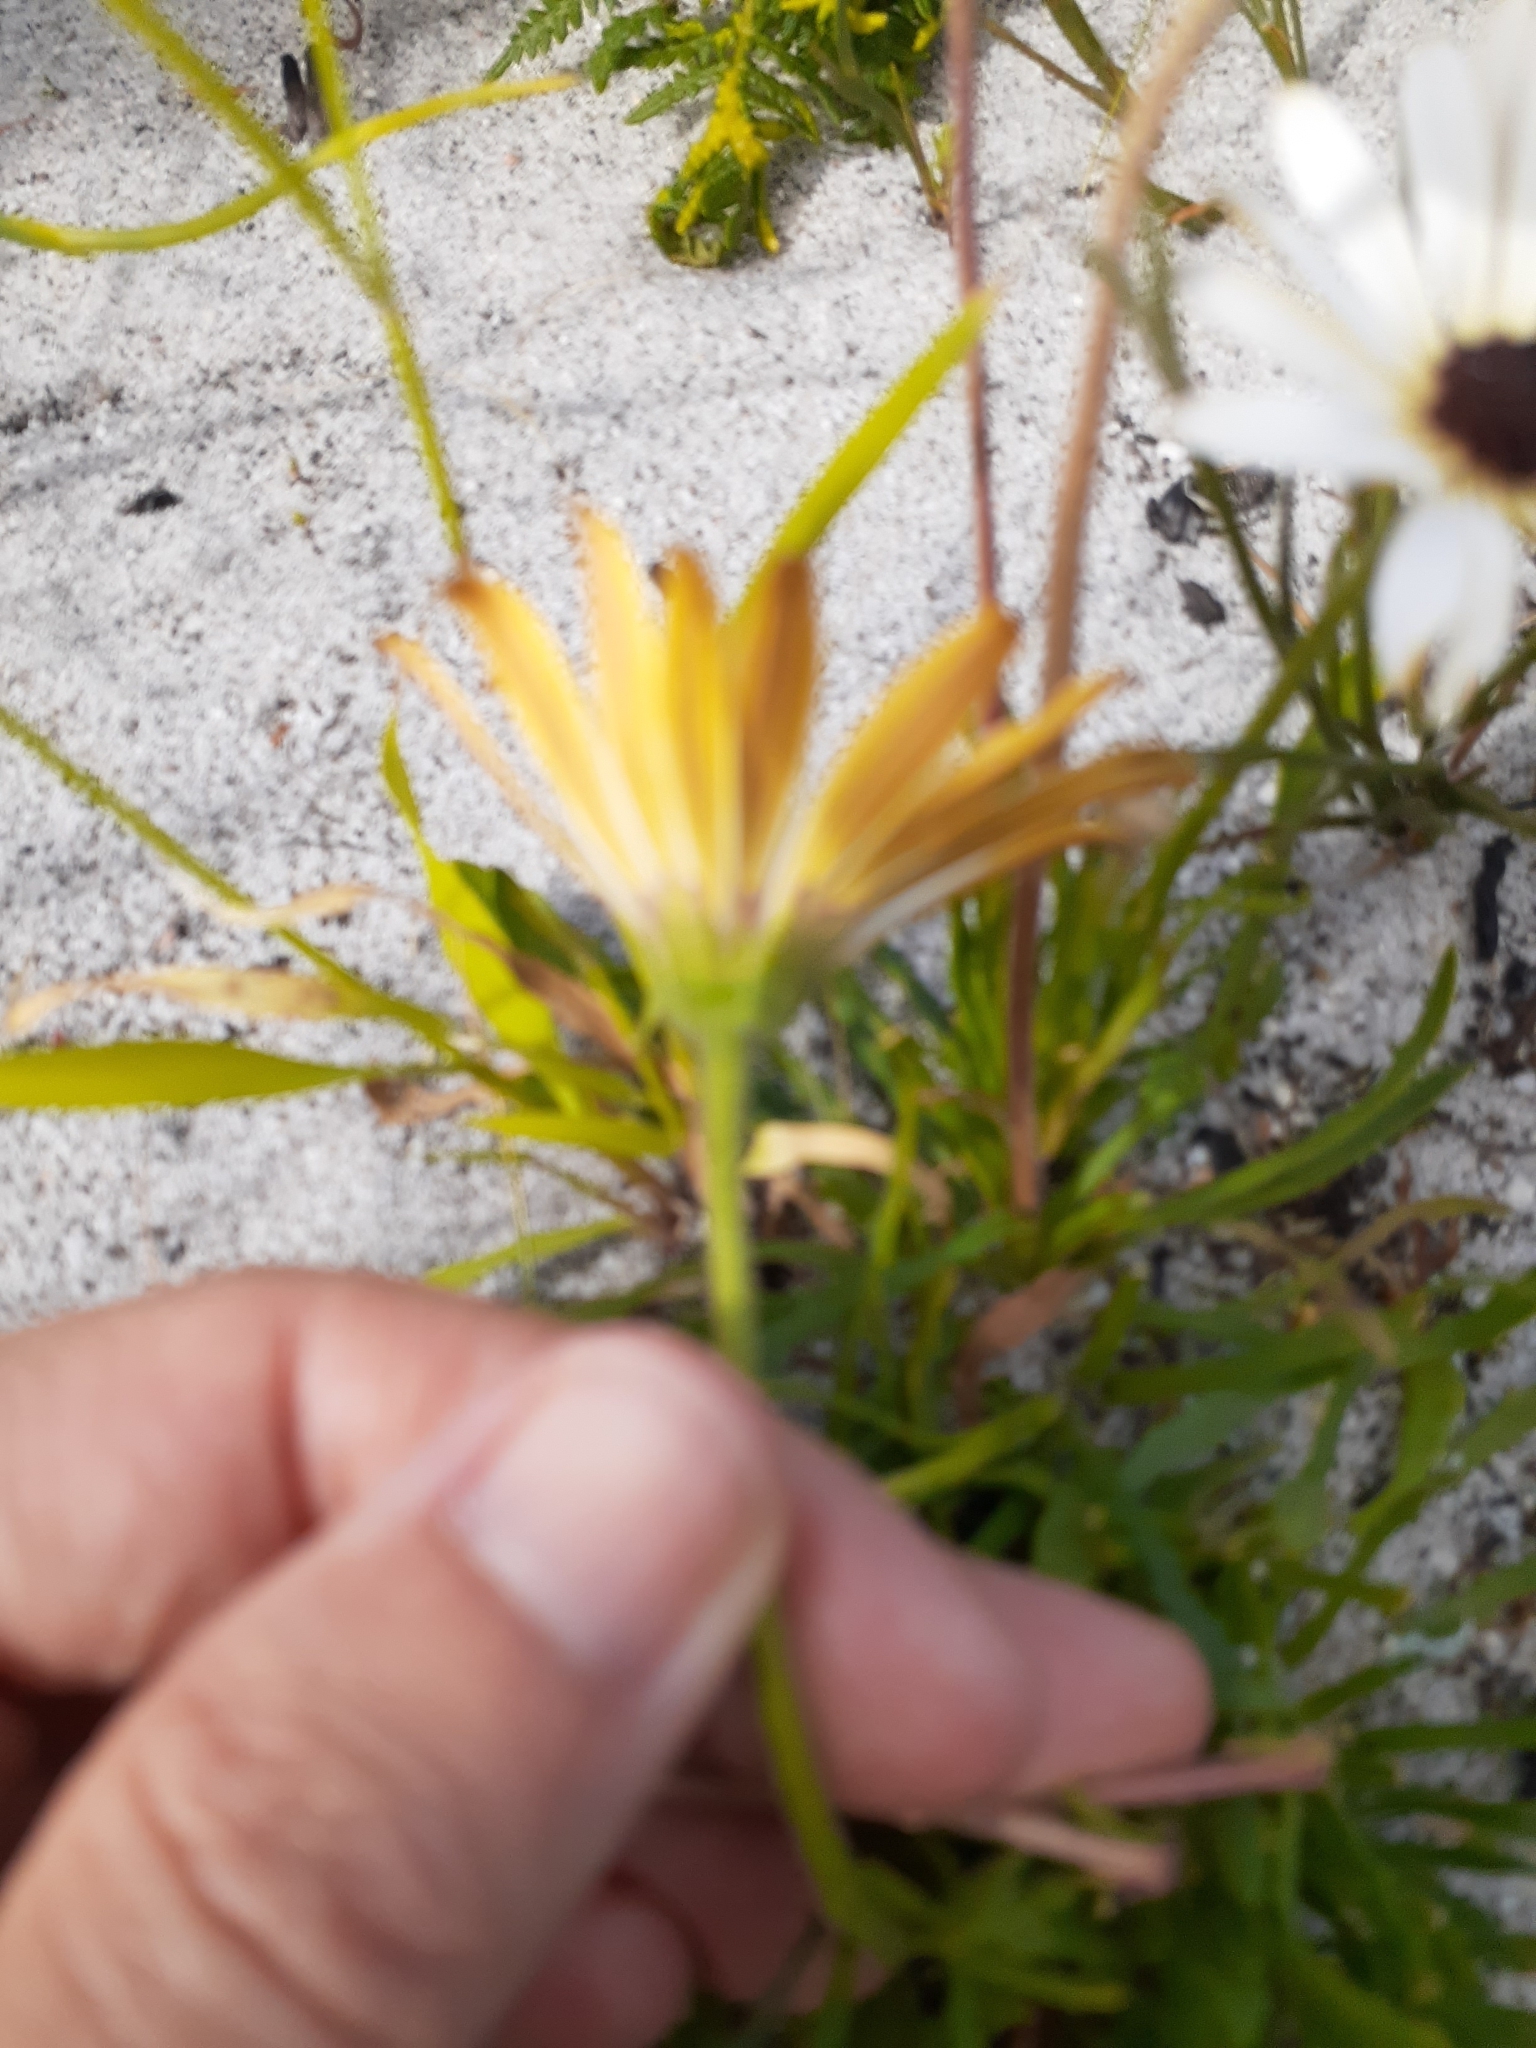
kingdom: Plantae
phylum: Tracheophyta
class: Magnoliopsida
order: Asterales
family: Asteraceae
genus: Dimorphotheca
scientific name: Dimorphotheca nudicaulis
